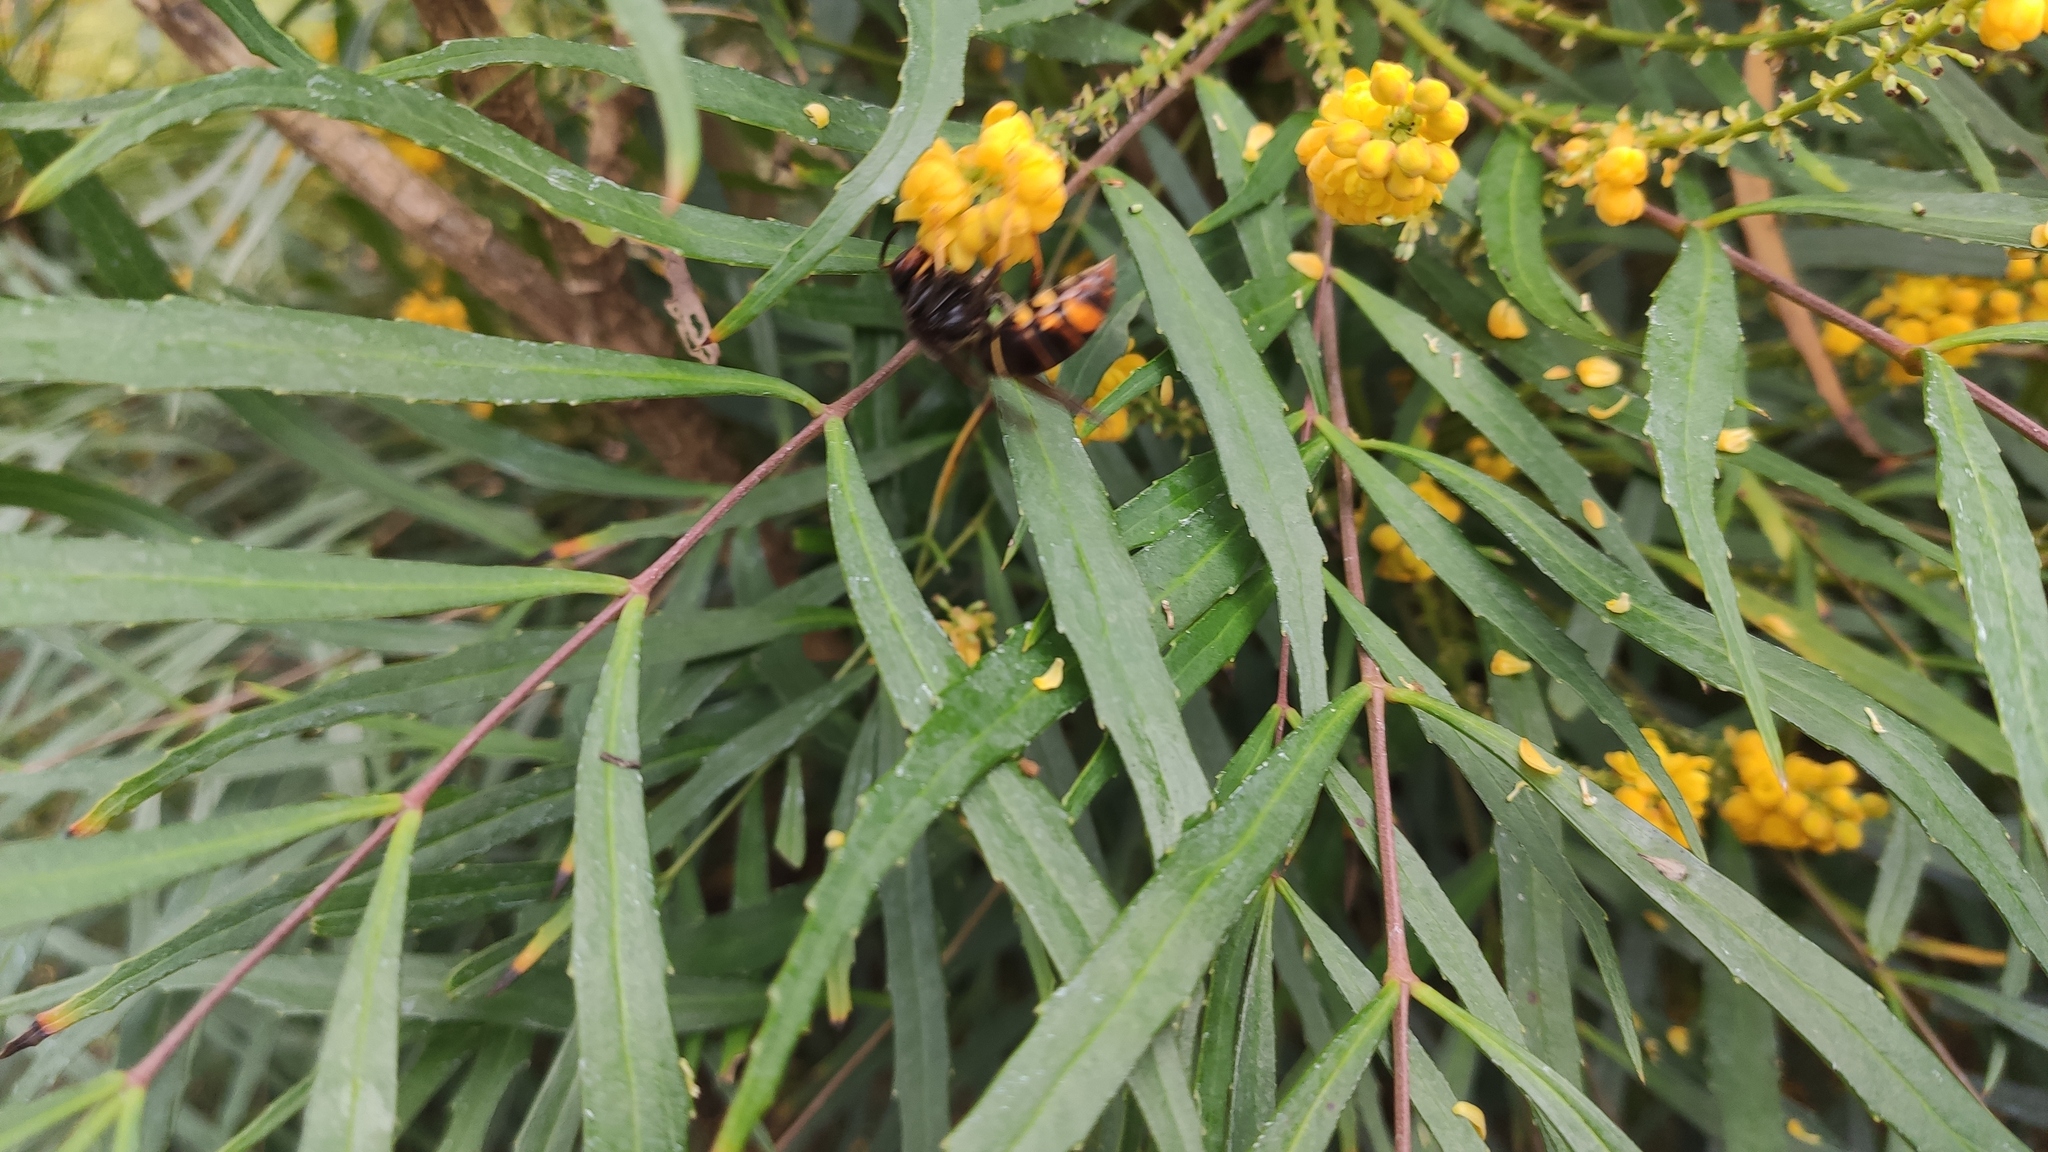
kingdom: Animalia
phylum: Arthropoda
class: Insecta
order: Hymenoptera
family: Vespidae
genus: Vespa
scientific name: Vespa velutina
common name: Asian hornet
